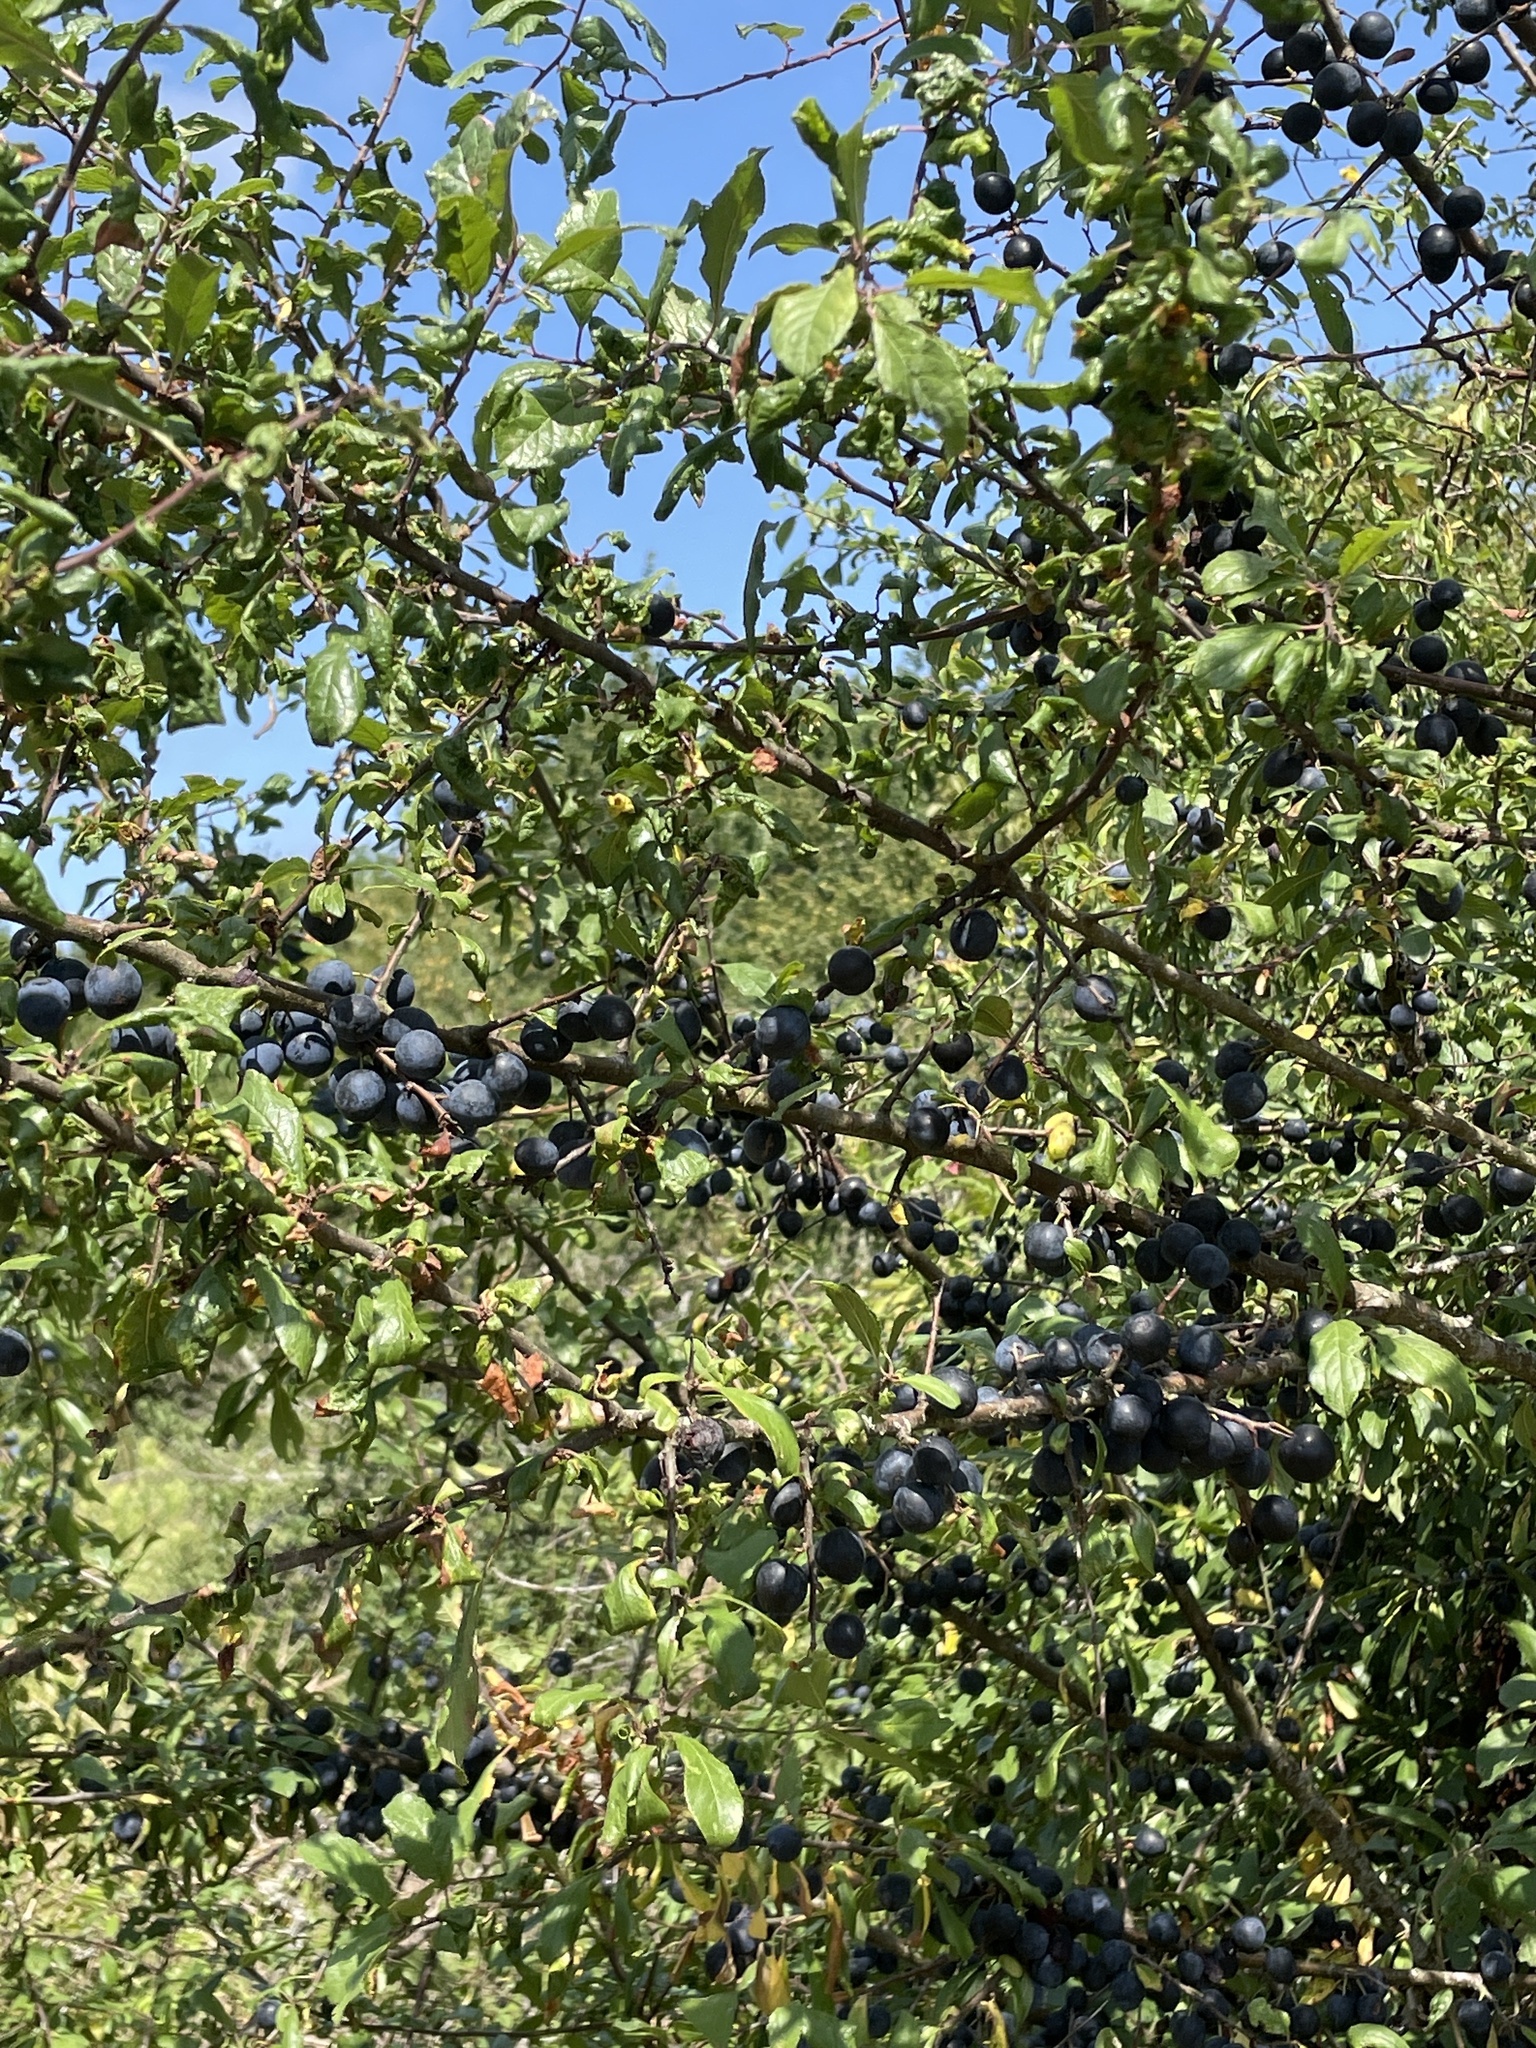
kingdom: Plantae
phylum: Tracheophyta
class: Magnoliopsida
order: Rosales
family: Rosaceae
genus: Prunus
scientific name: Prunus spinosa
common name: Blackthorn
